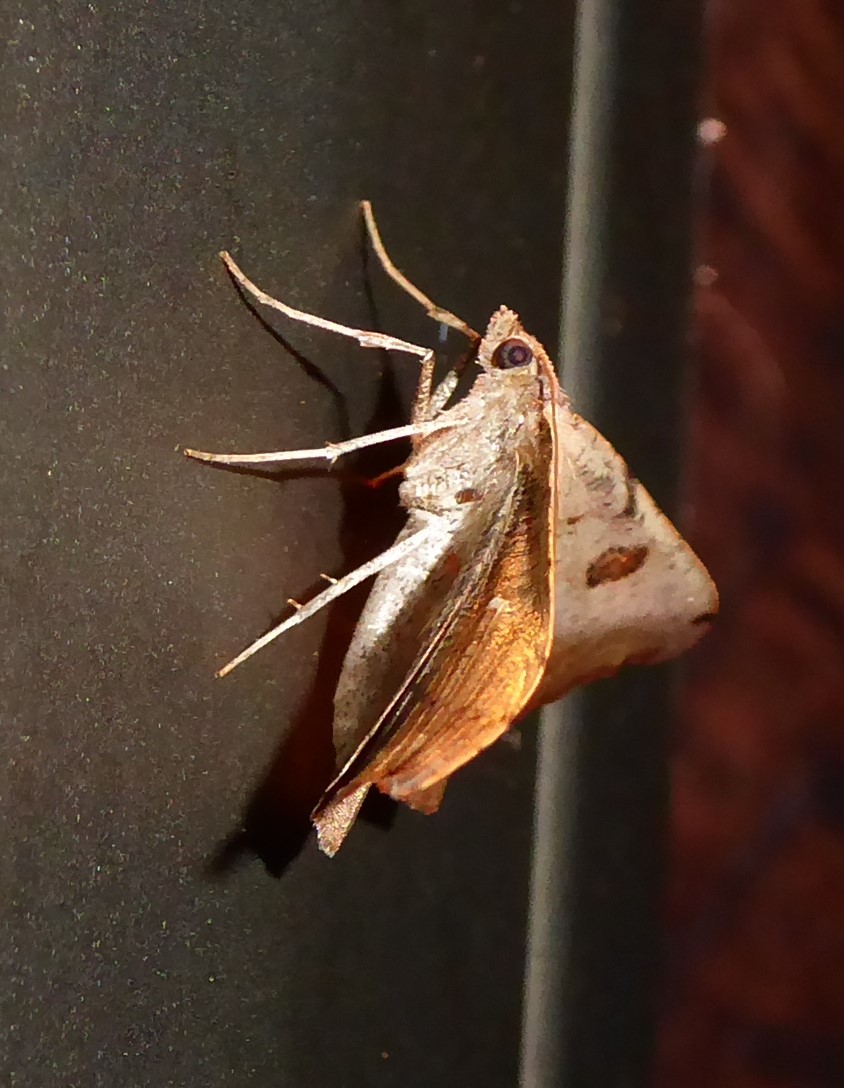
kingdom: Animalia
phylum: Arthropoda
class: Insecta
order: Lepidoptera
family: Geometridae
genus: Sarisa
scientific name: Sarisa muriferata
